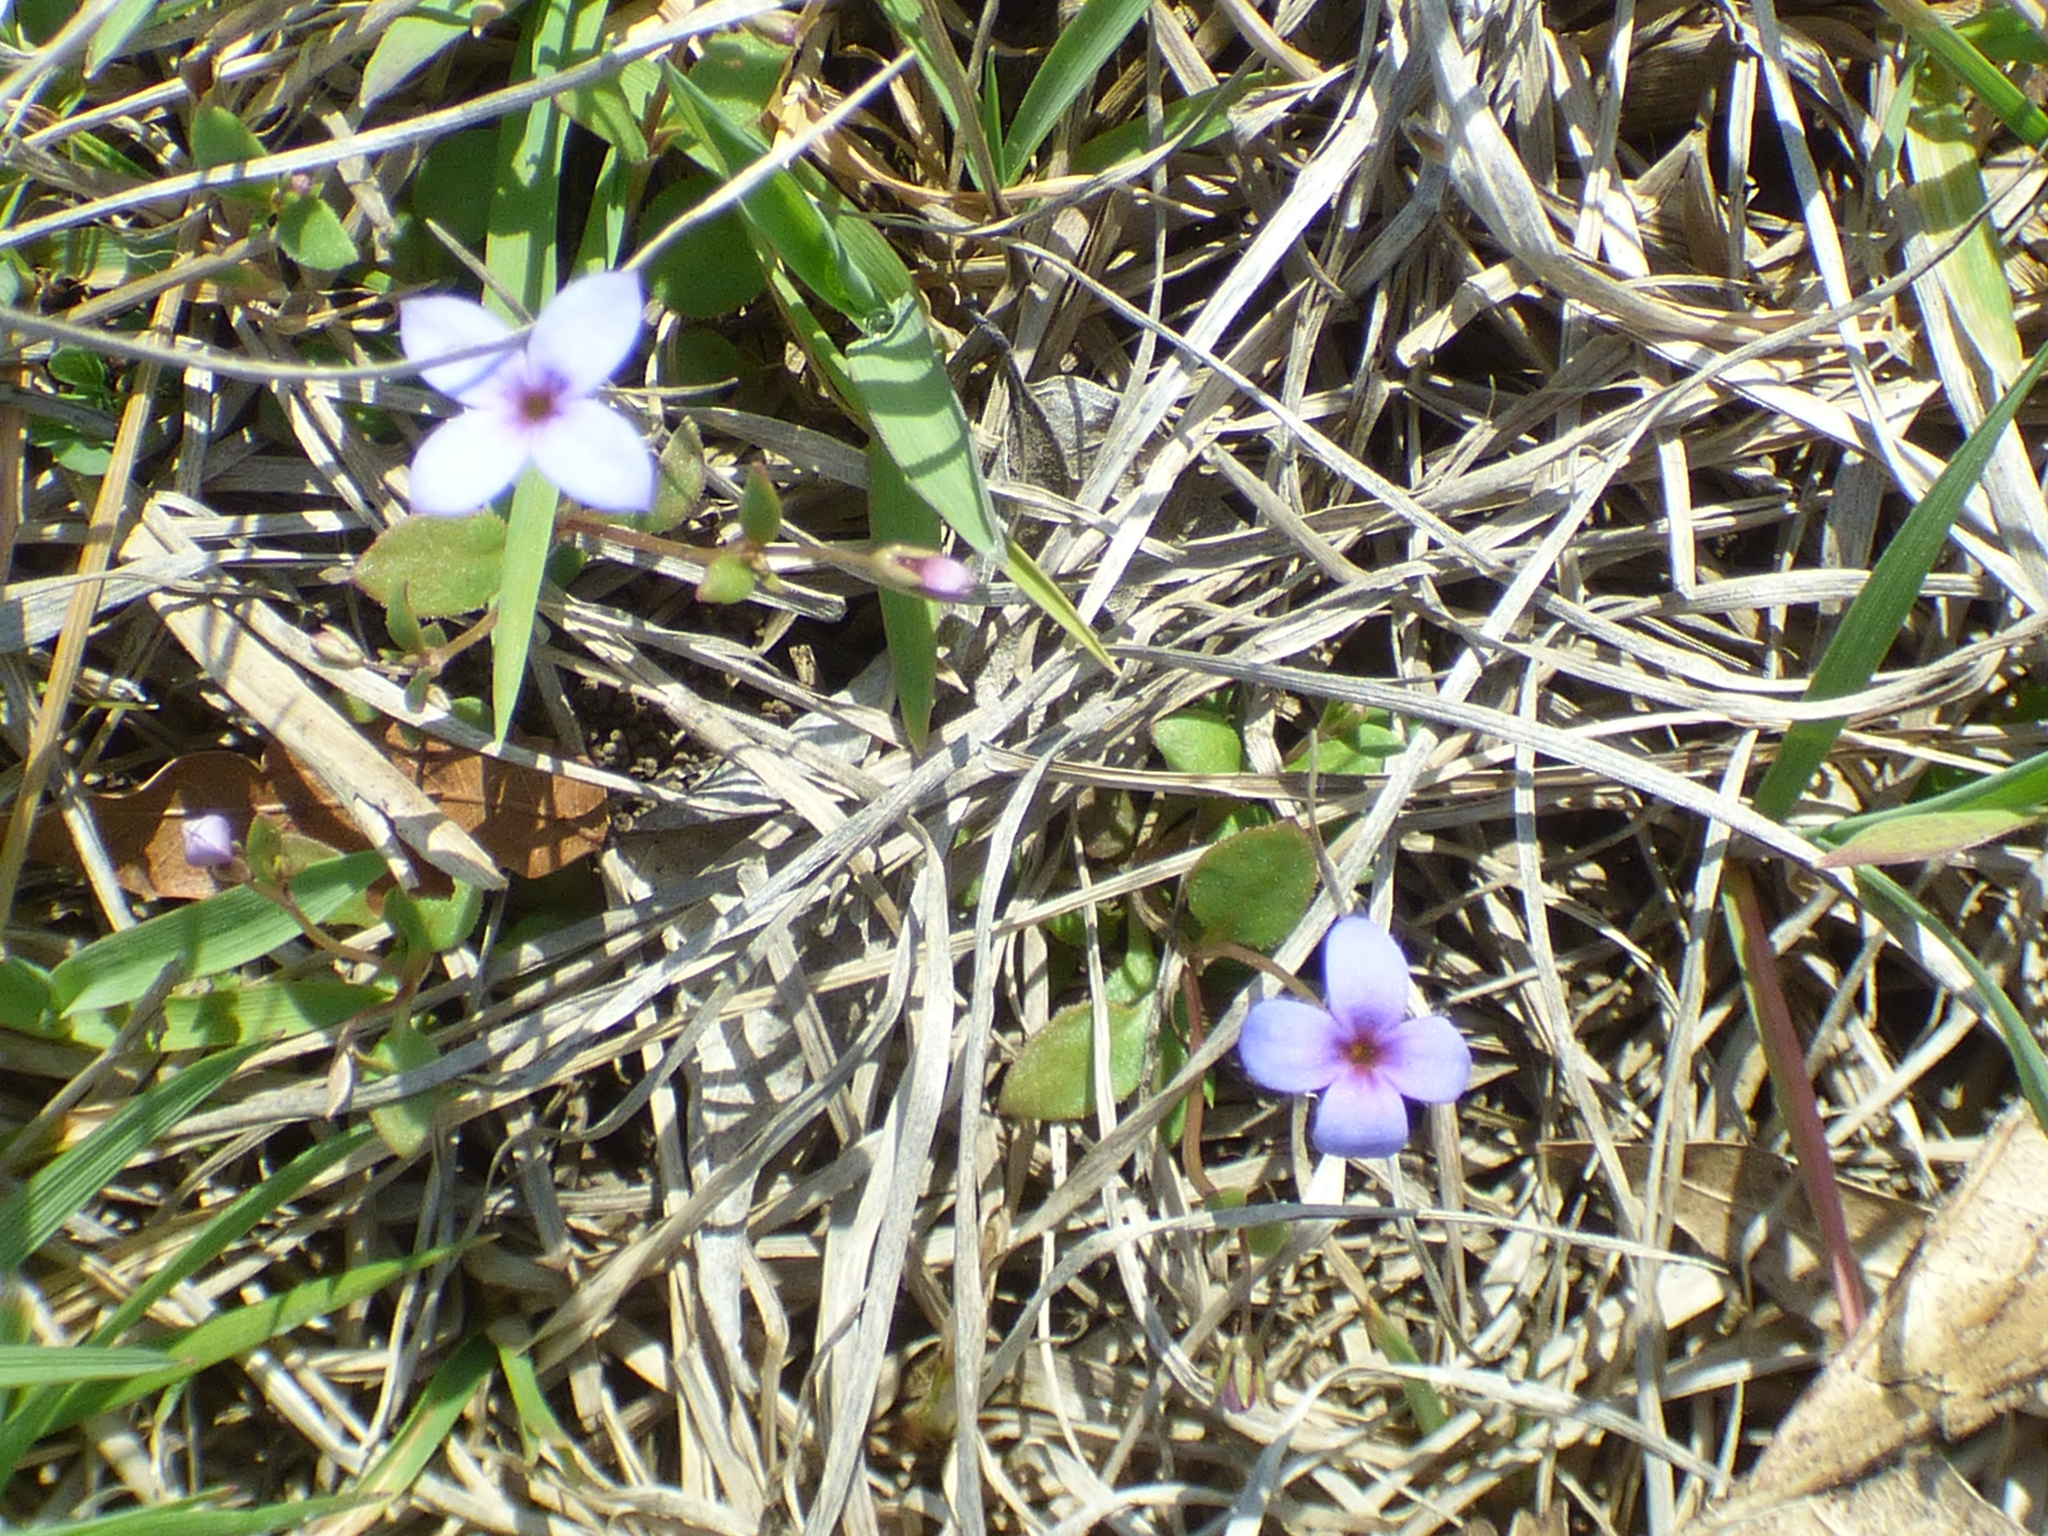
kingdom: Plantae
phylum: Tracheophyta
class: Magnoliopsida
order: Gentianales
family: Rubiaceae
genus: Houstonia
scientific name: Houstonia pusilla
